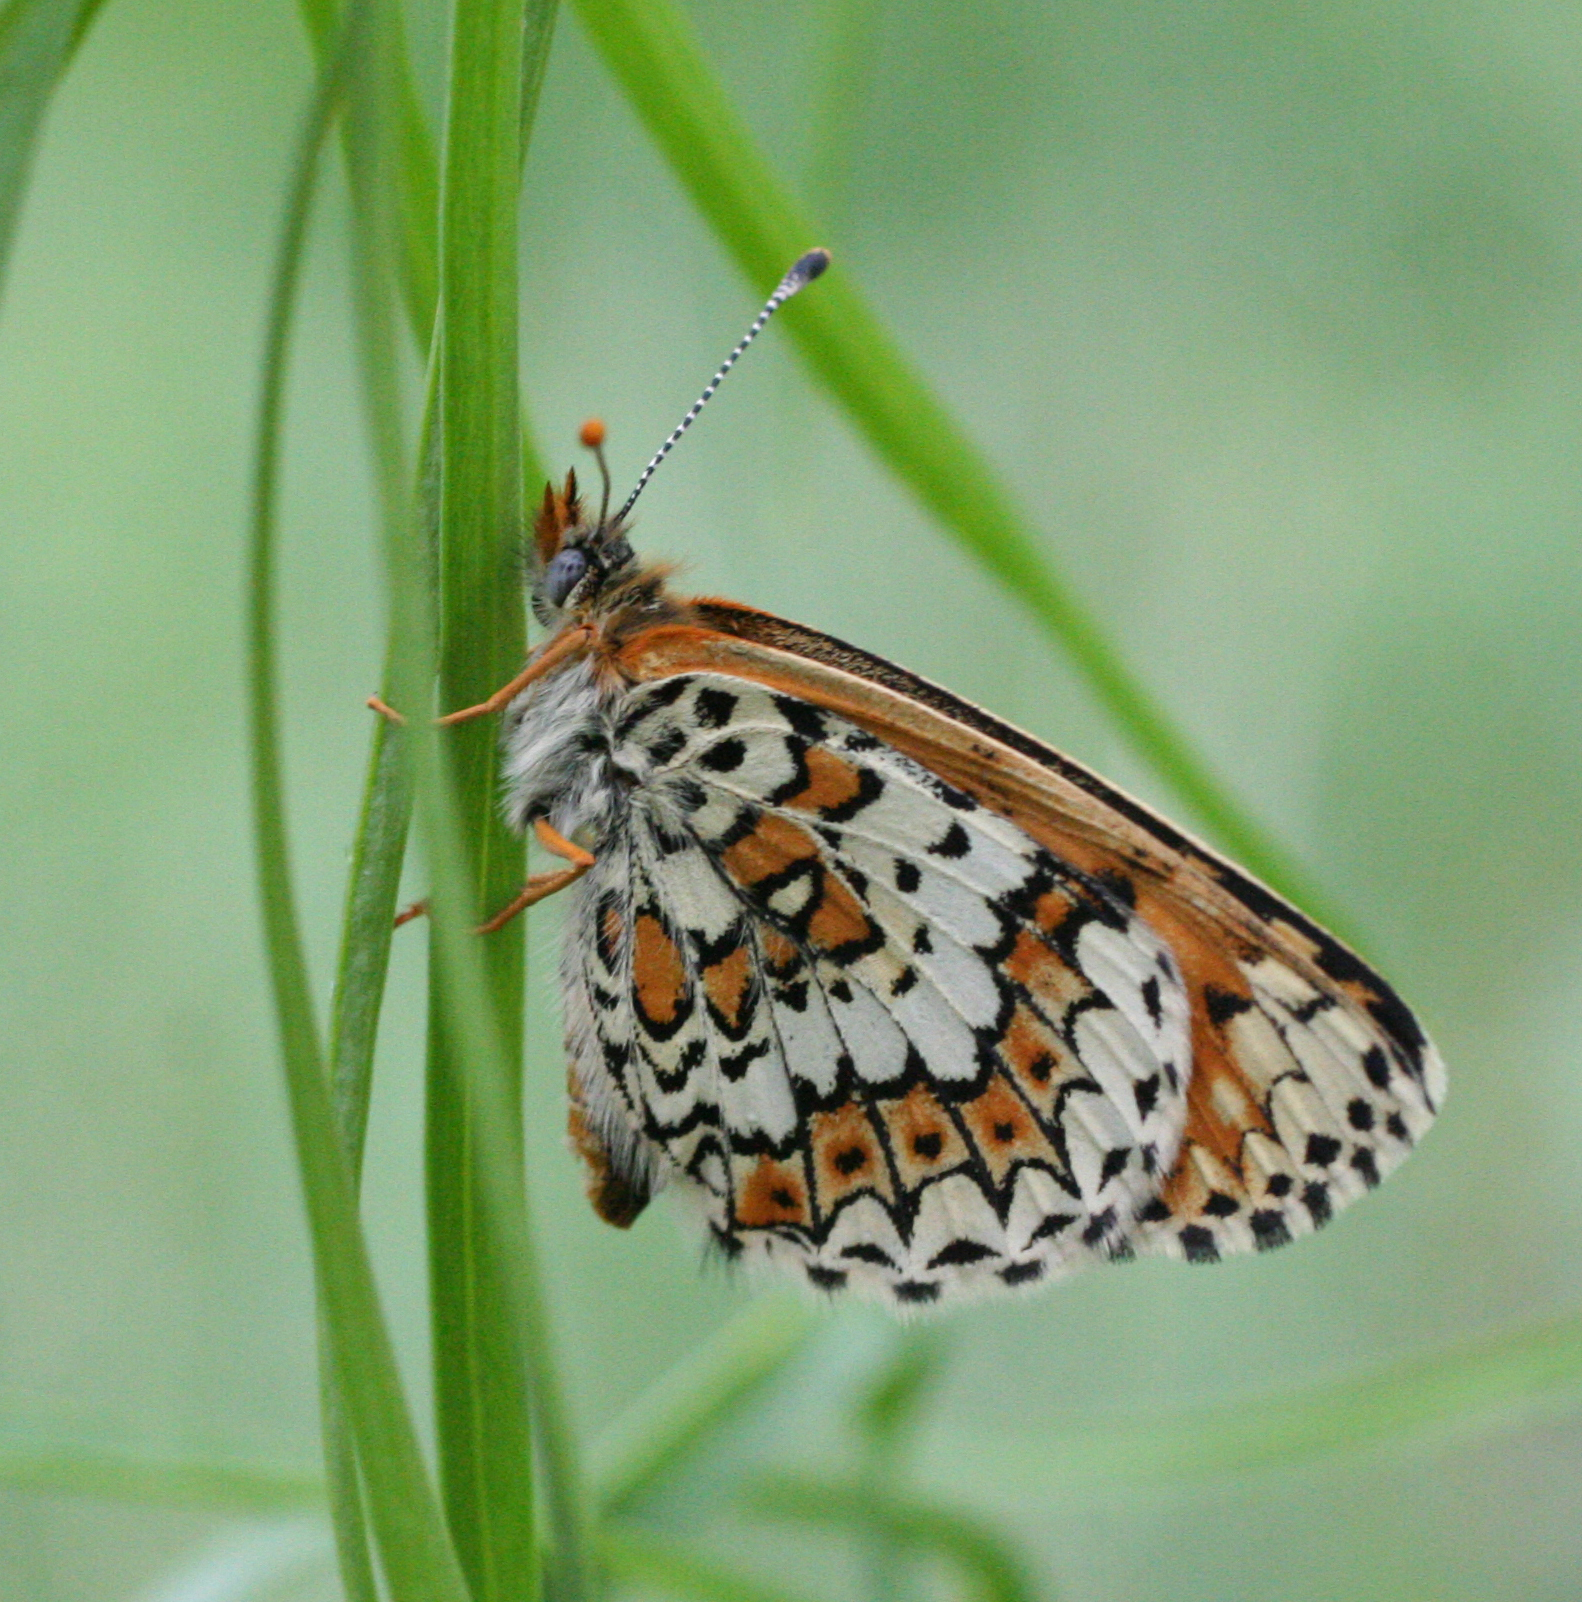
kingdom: Animalia
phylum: Arthropoda
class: Insecta
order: Lepidoptera
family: Nymphalidae
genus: Melitaea
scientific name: Melitaea cinxia
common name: Glanville fritillary
